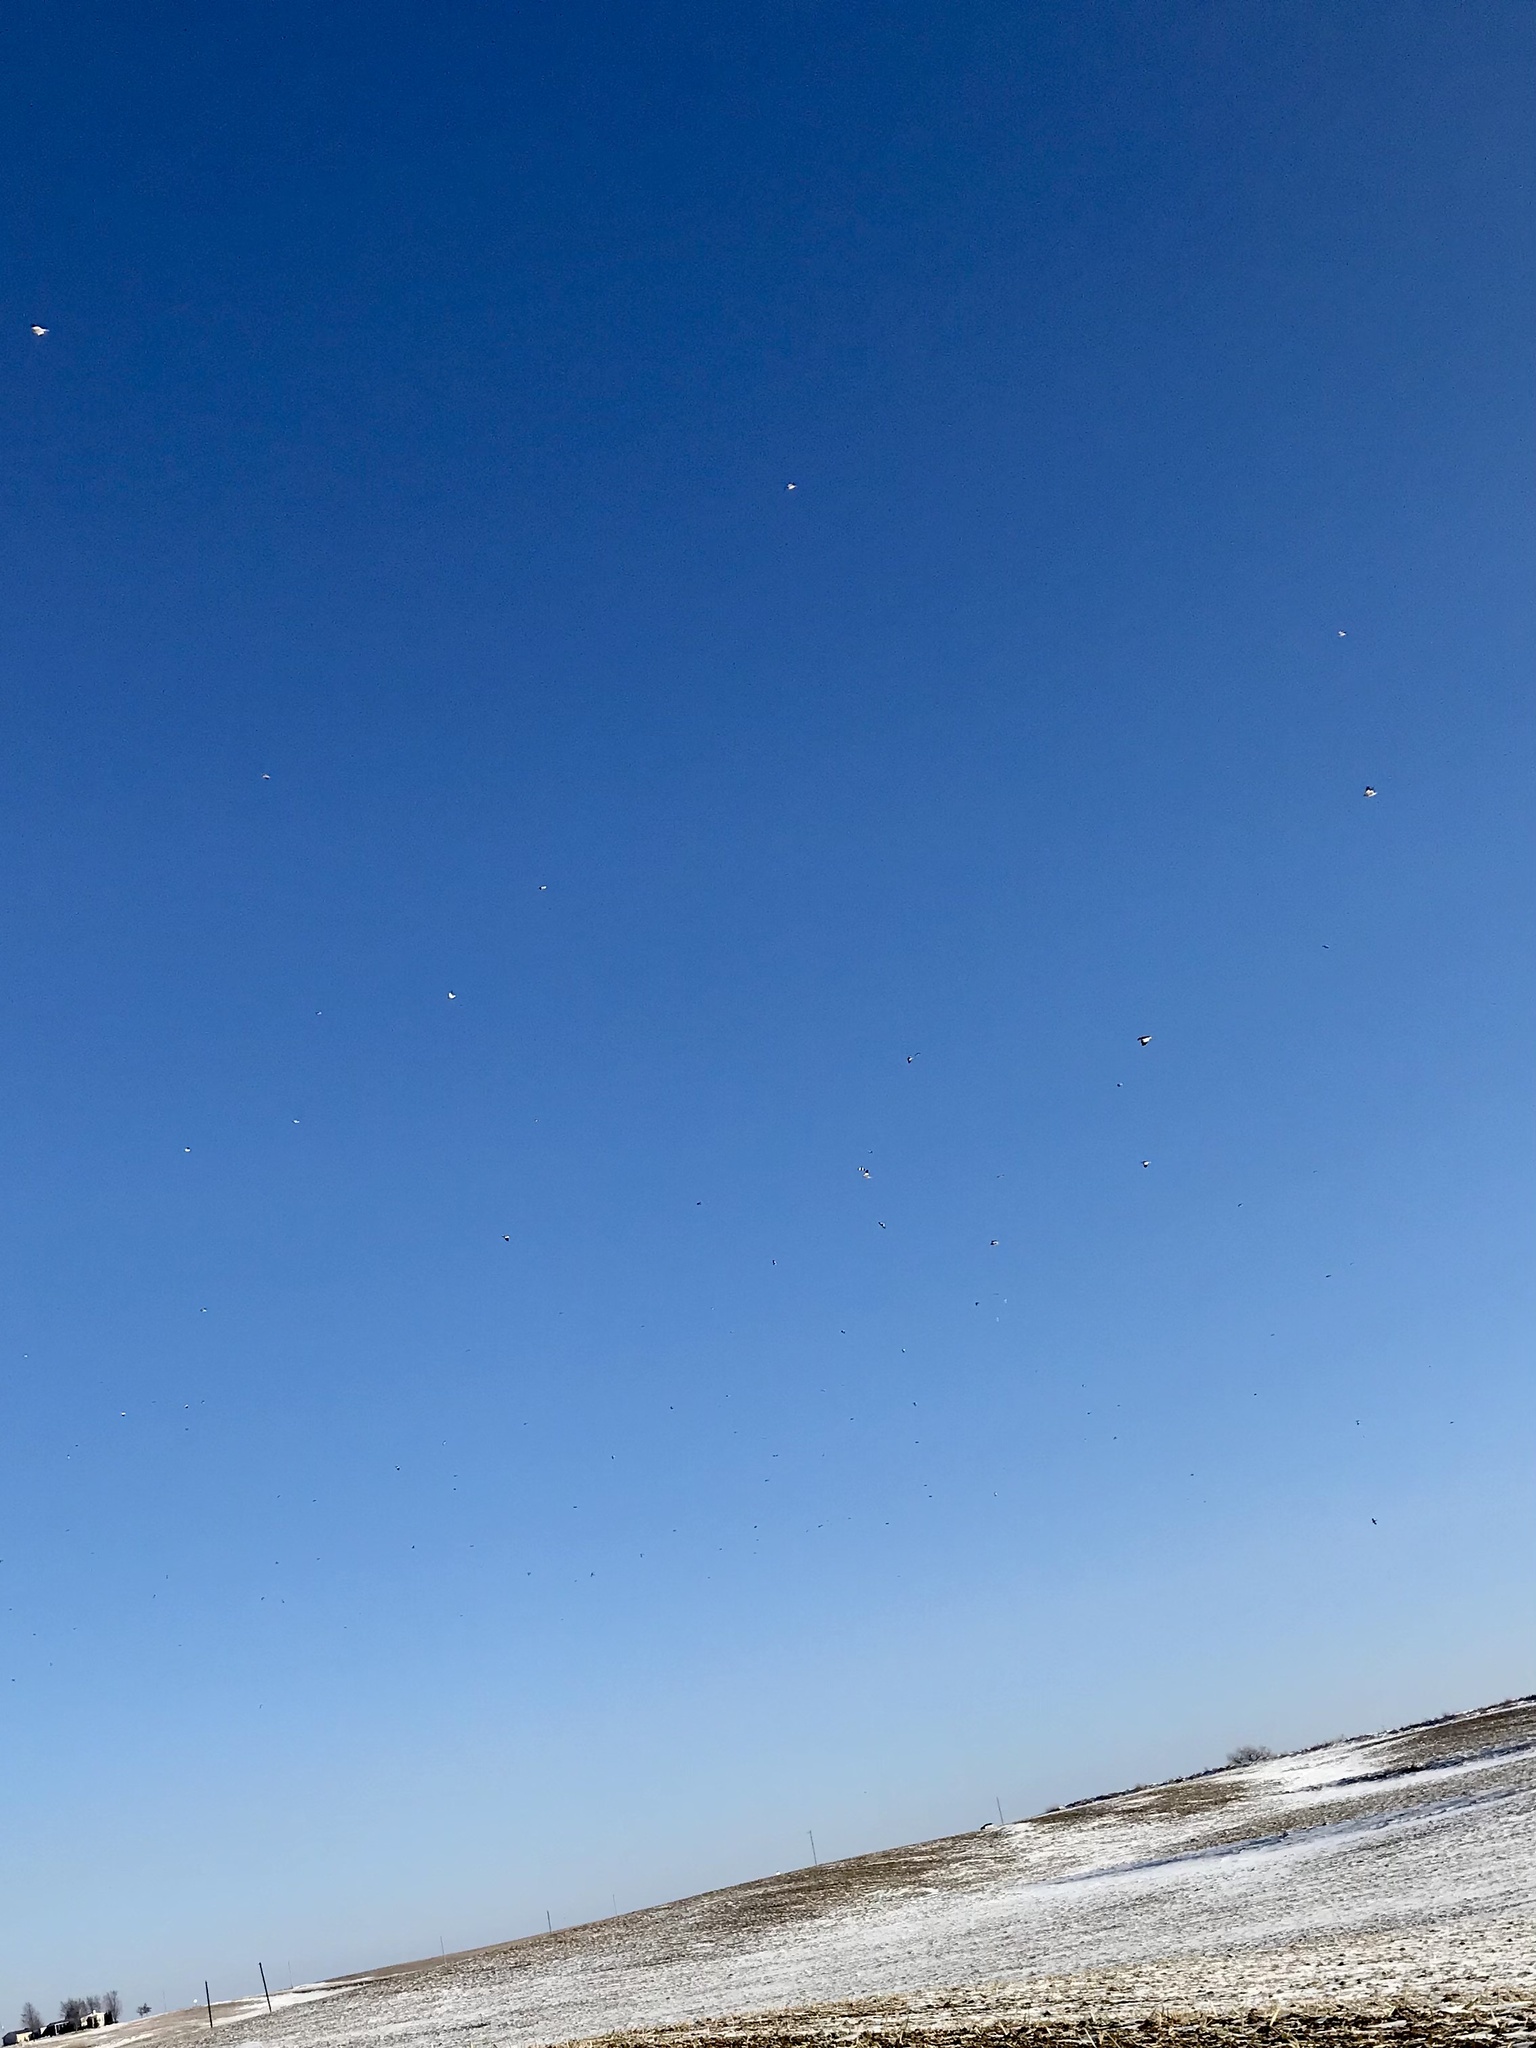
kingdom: Animalia
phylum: Chordata
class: Aves
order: Passeriformes
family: Calcariidae
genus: Plectrophenax
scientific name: Plectrophenax nivalis
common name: Snow bunting
